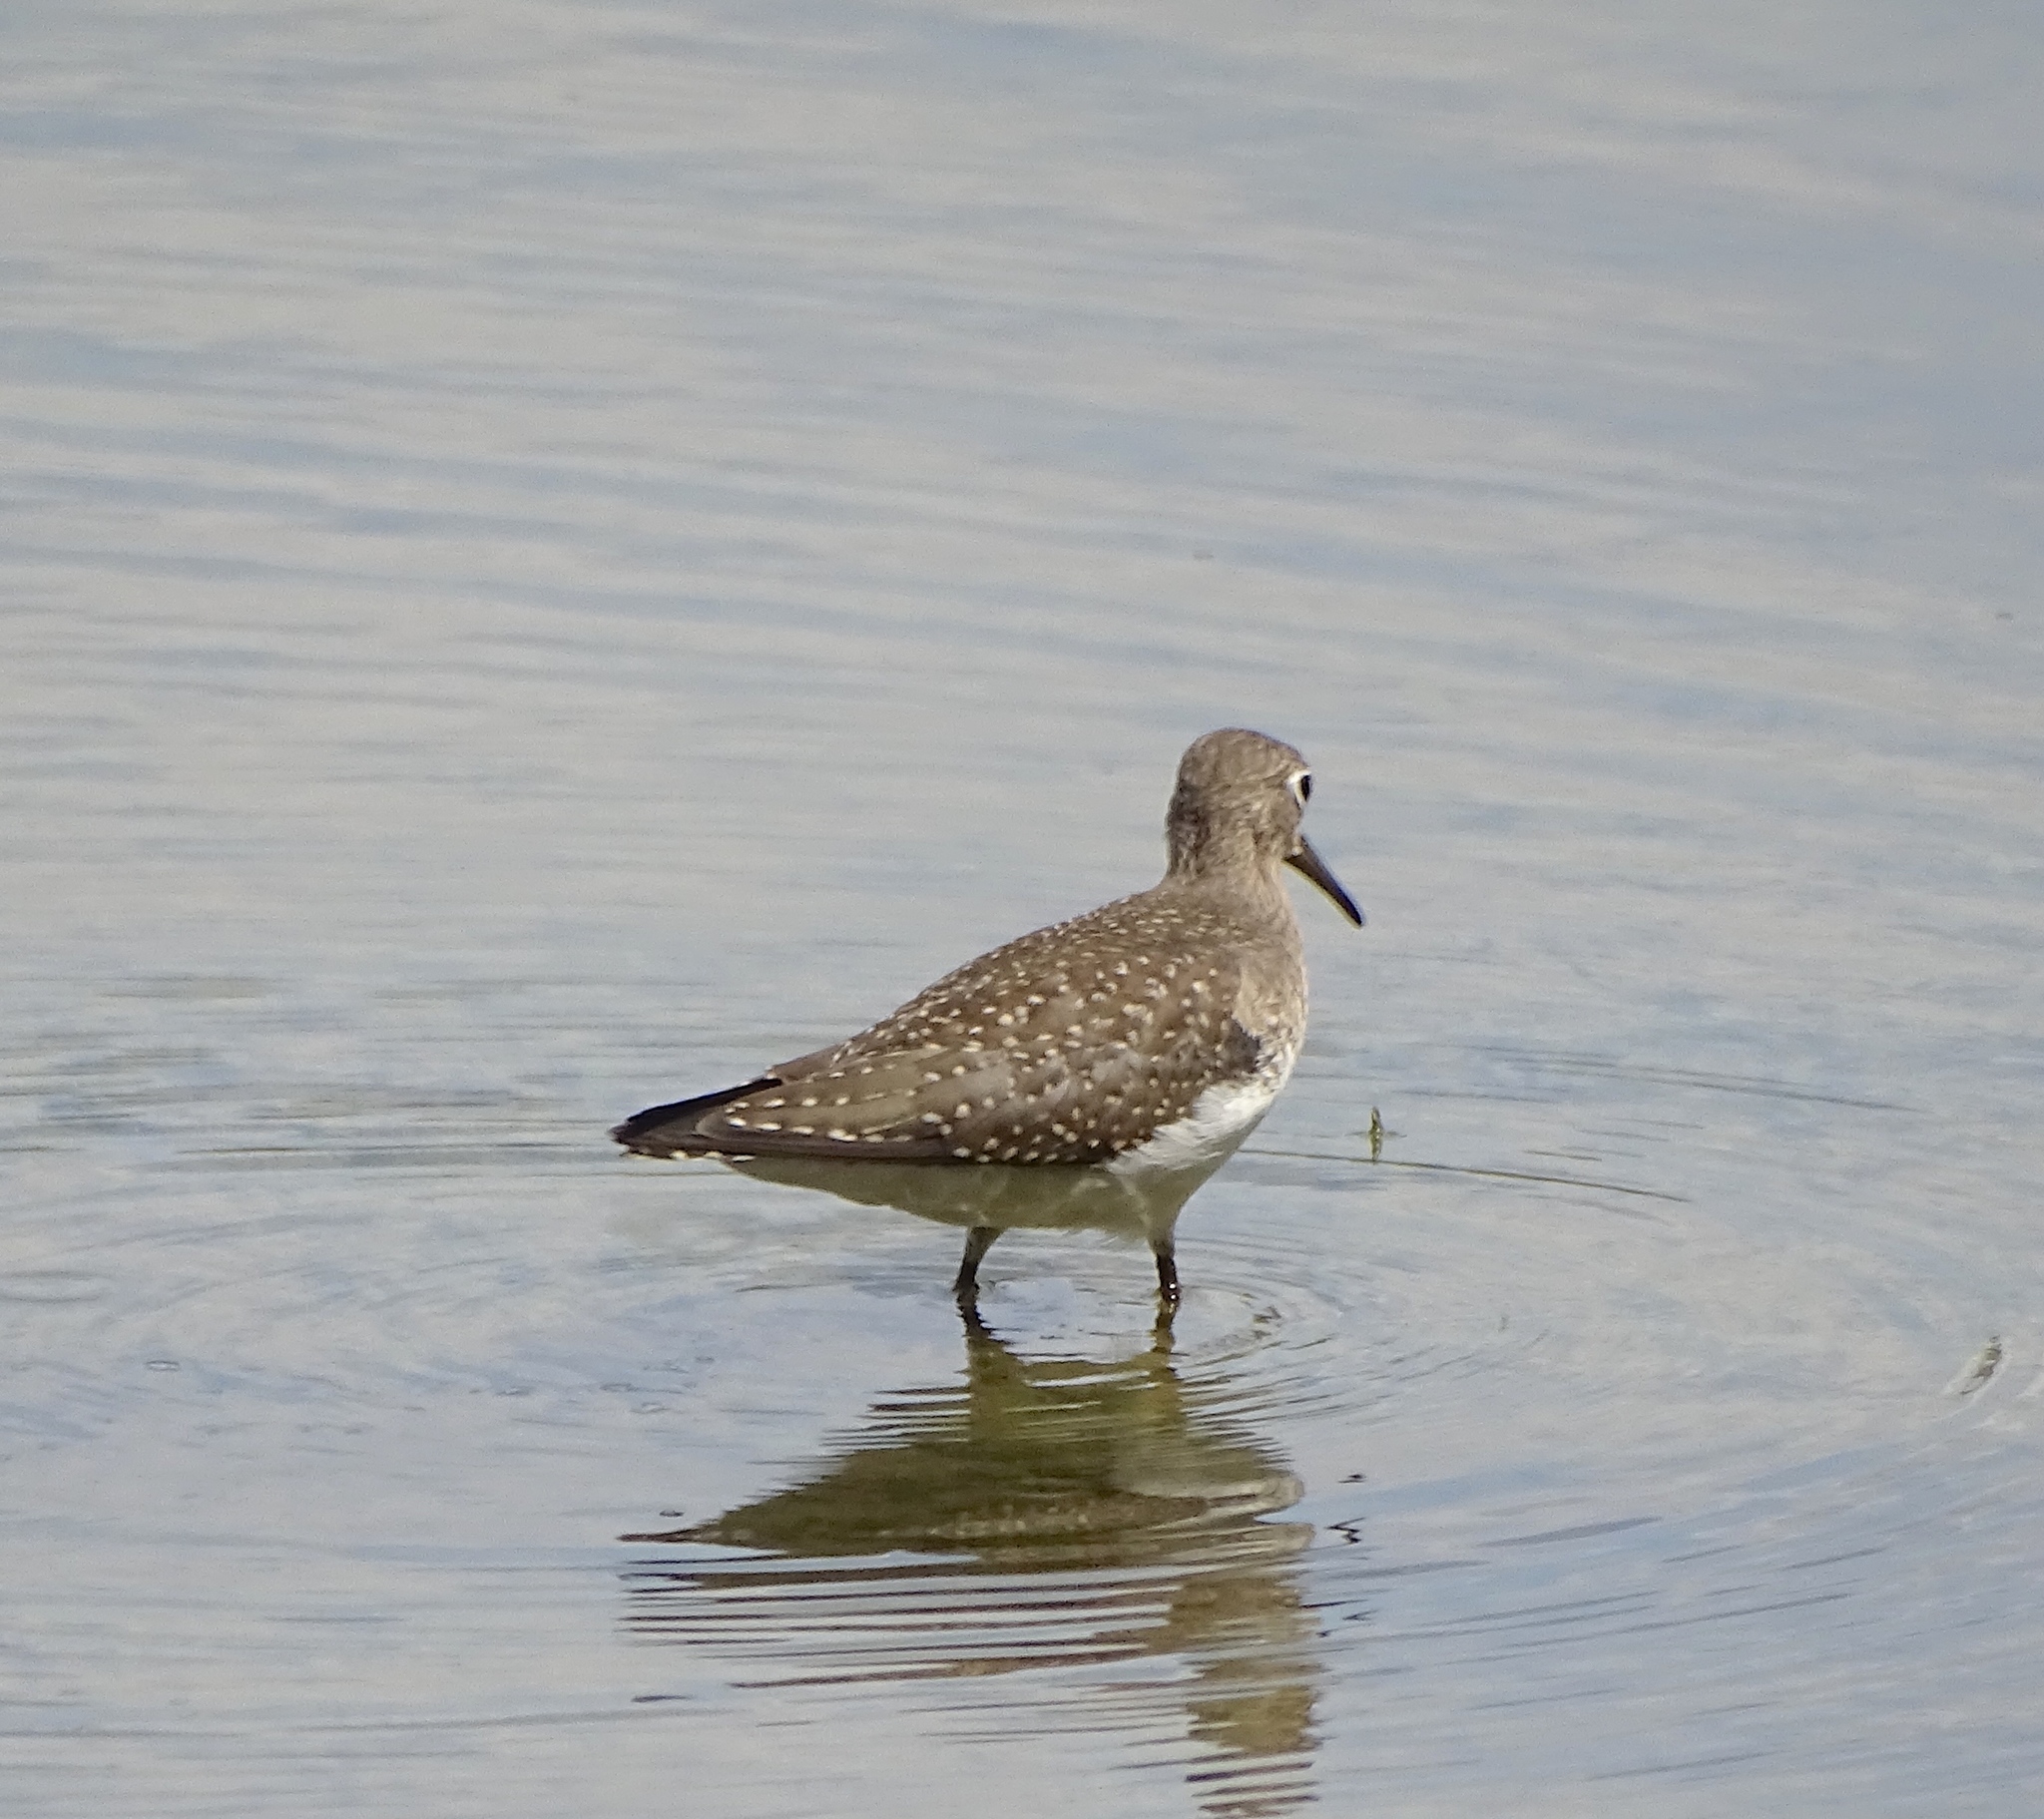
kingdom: Animalia
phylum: Chordata
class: Aves
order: Charadriiformes
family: Scolopacidae
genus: Tringa
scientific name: Tringa solitaria
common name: Solitary sandpiper
